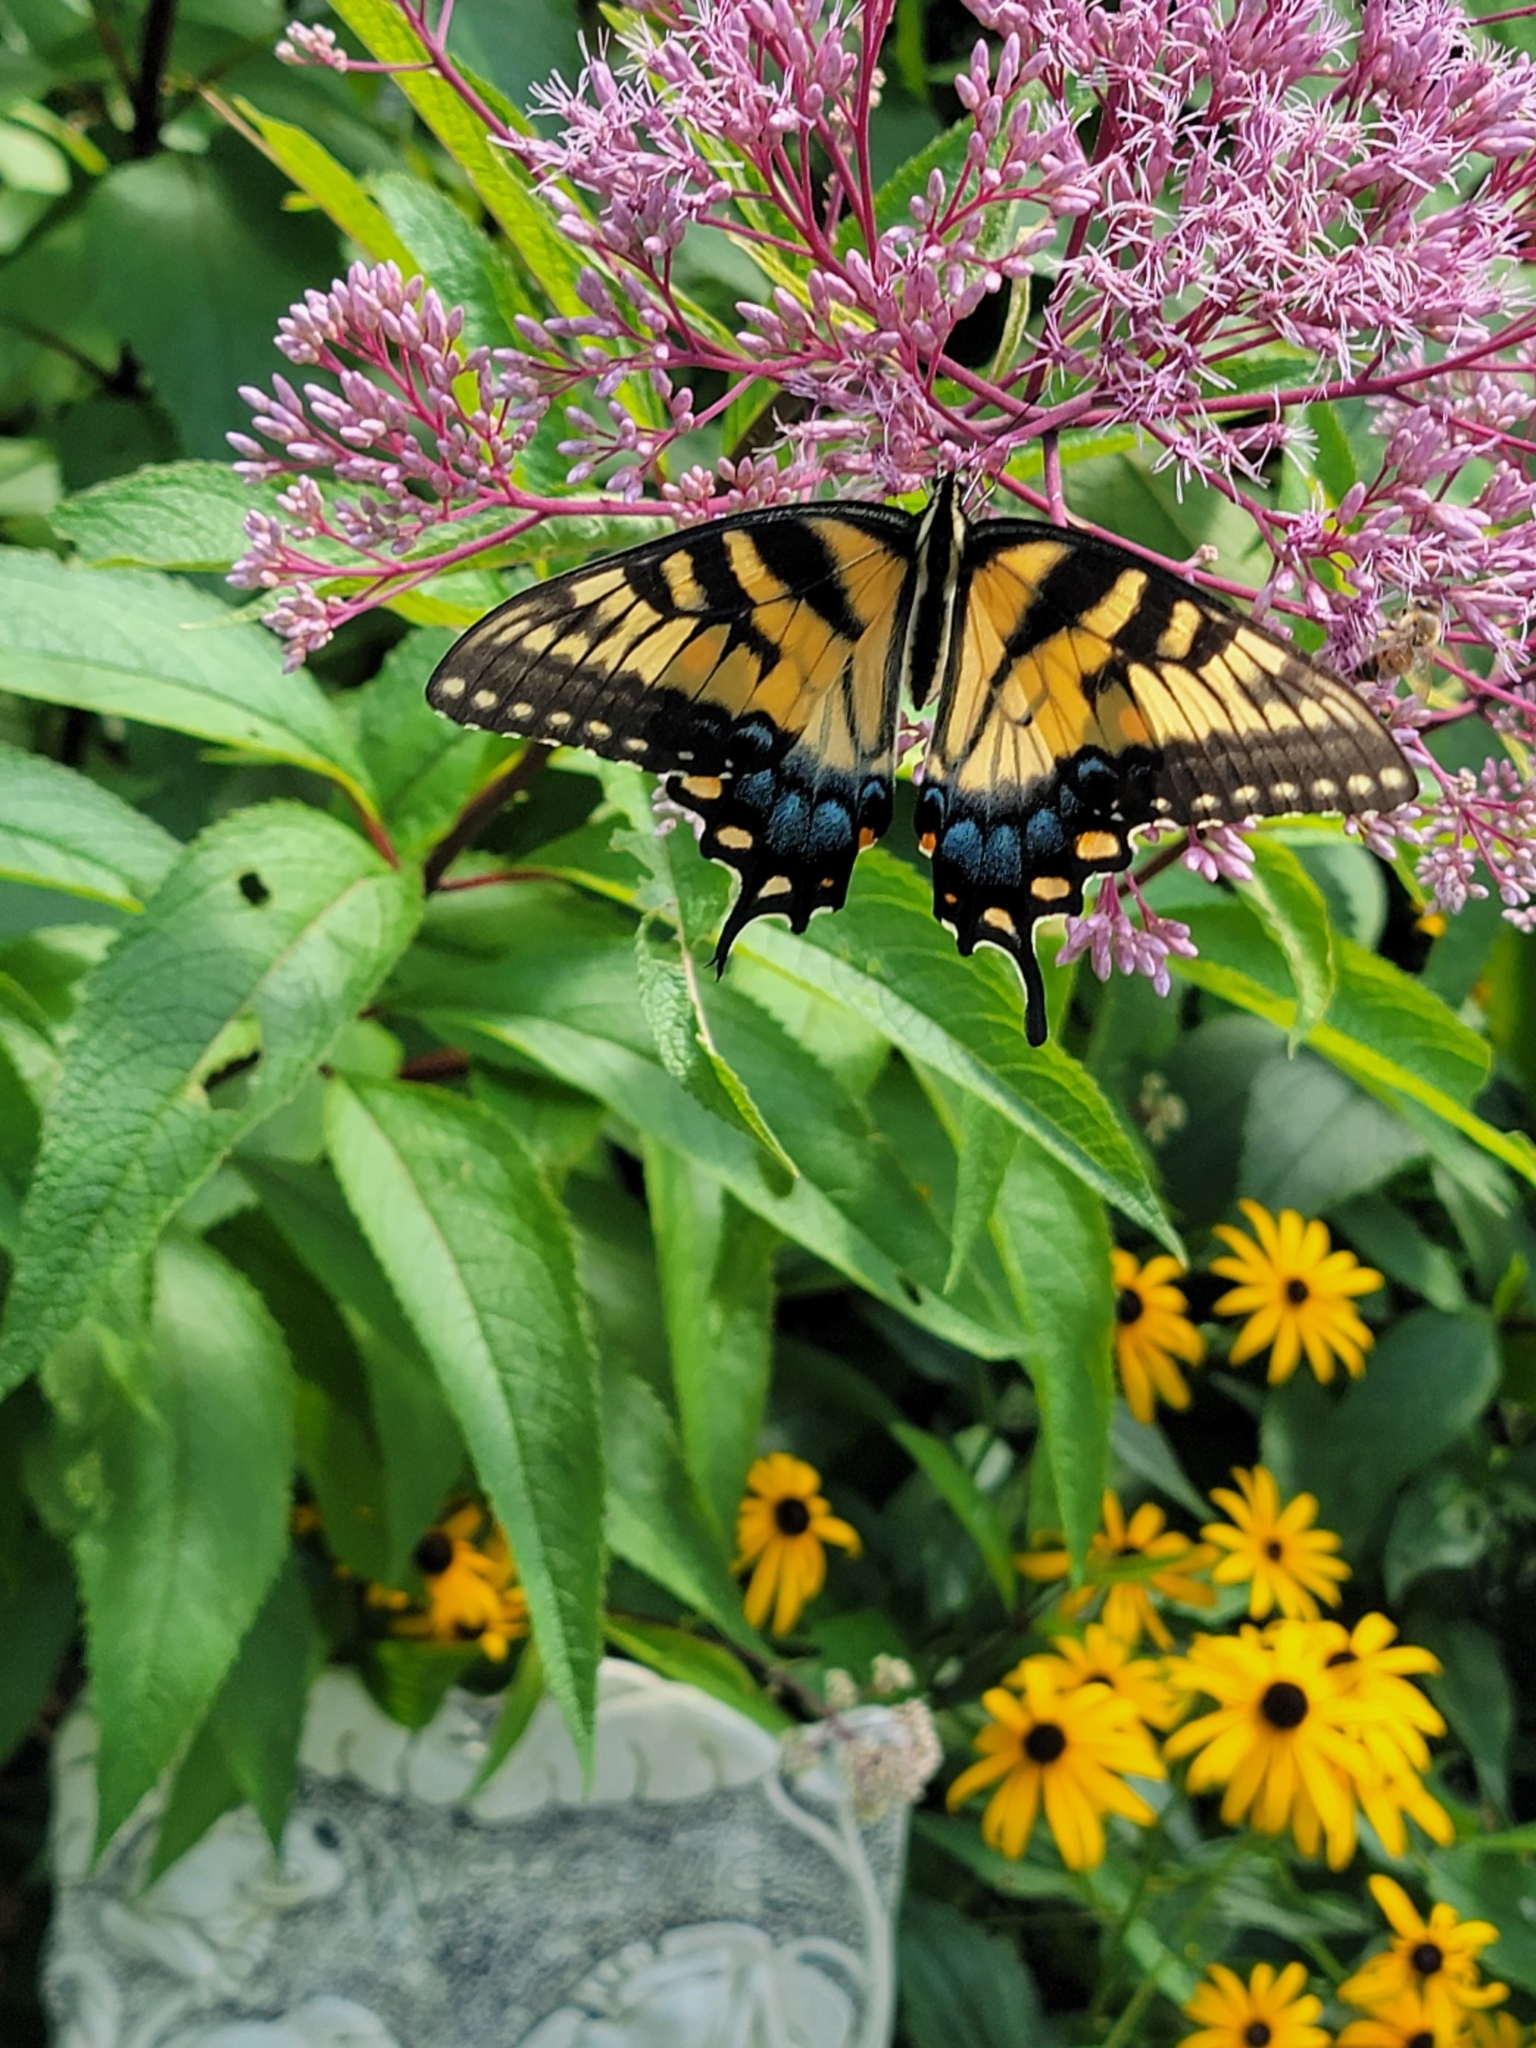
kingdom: Animalia
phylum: Arthropoda
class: Insecta
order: Lepidoptera
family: Papilionidae
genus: Papilio
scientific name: Papilio glaucus
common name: Tiger swallowtail
